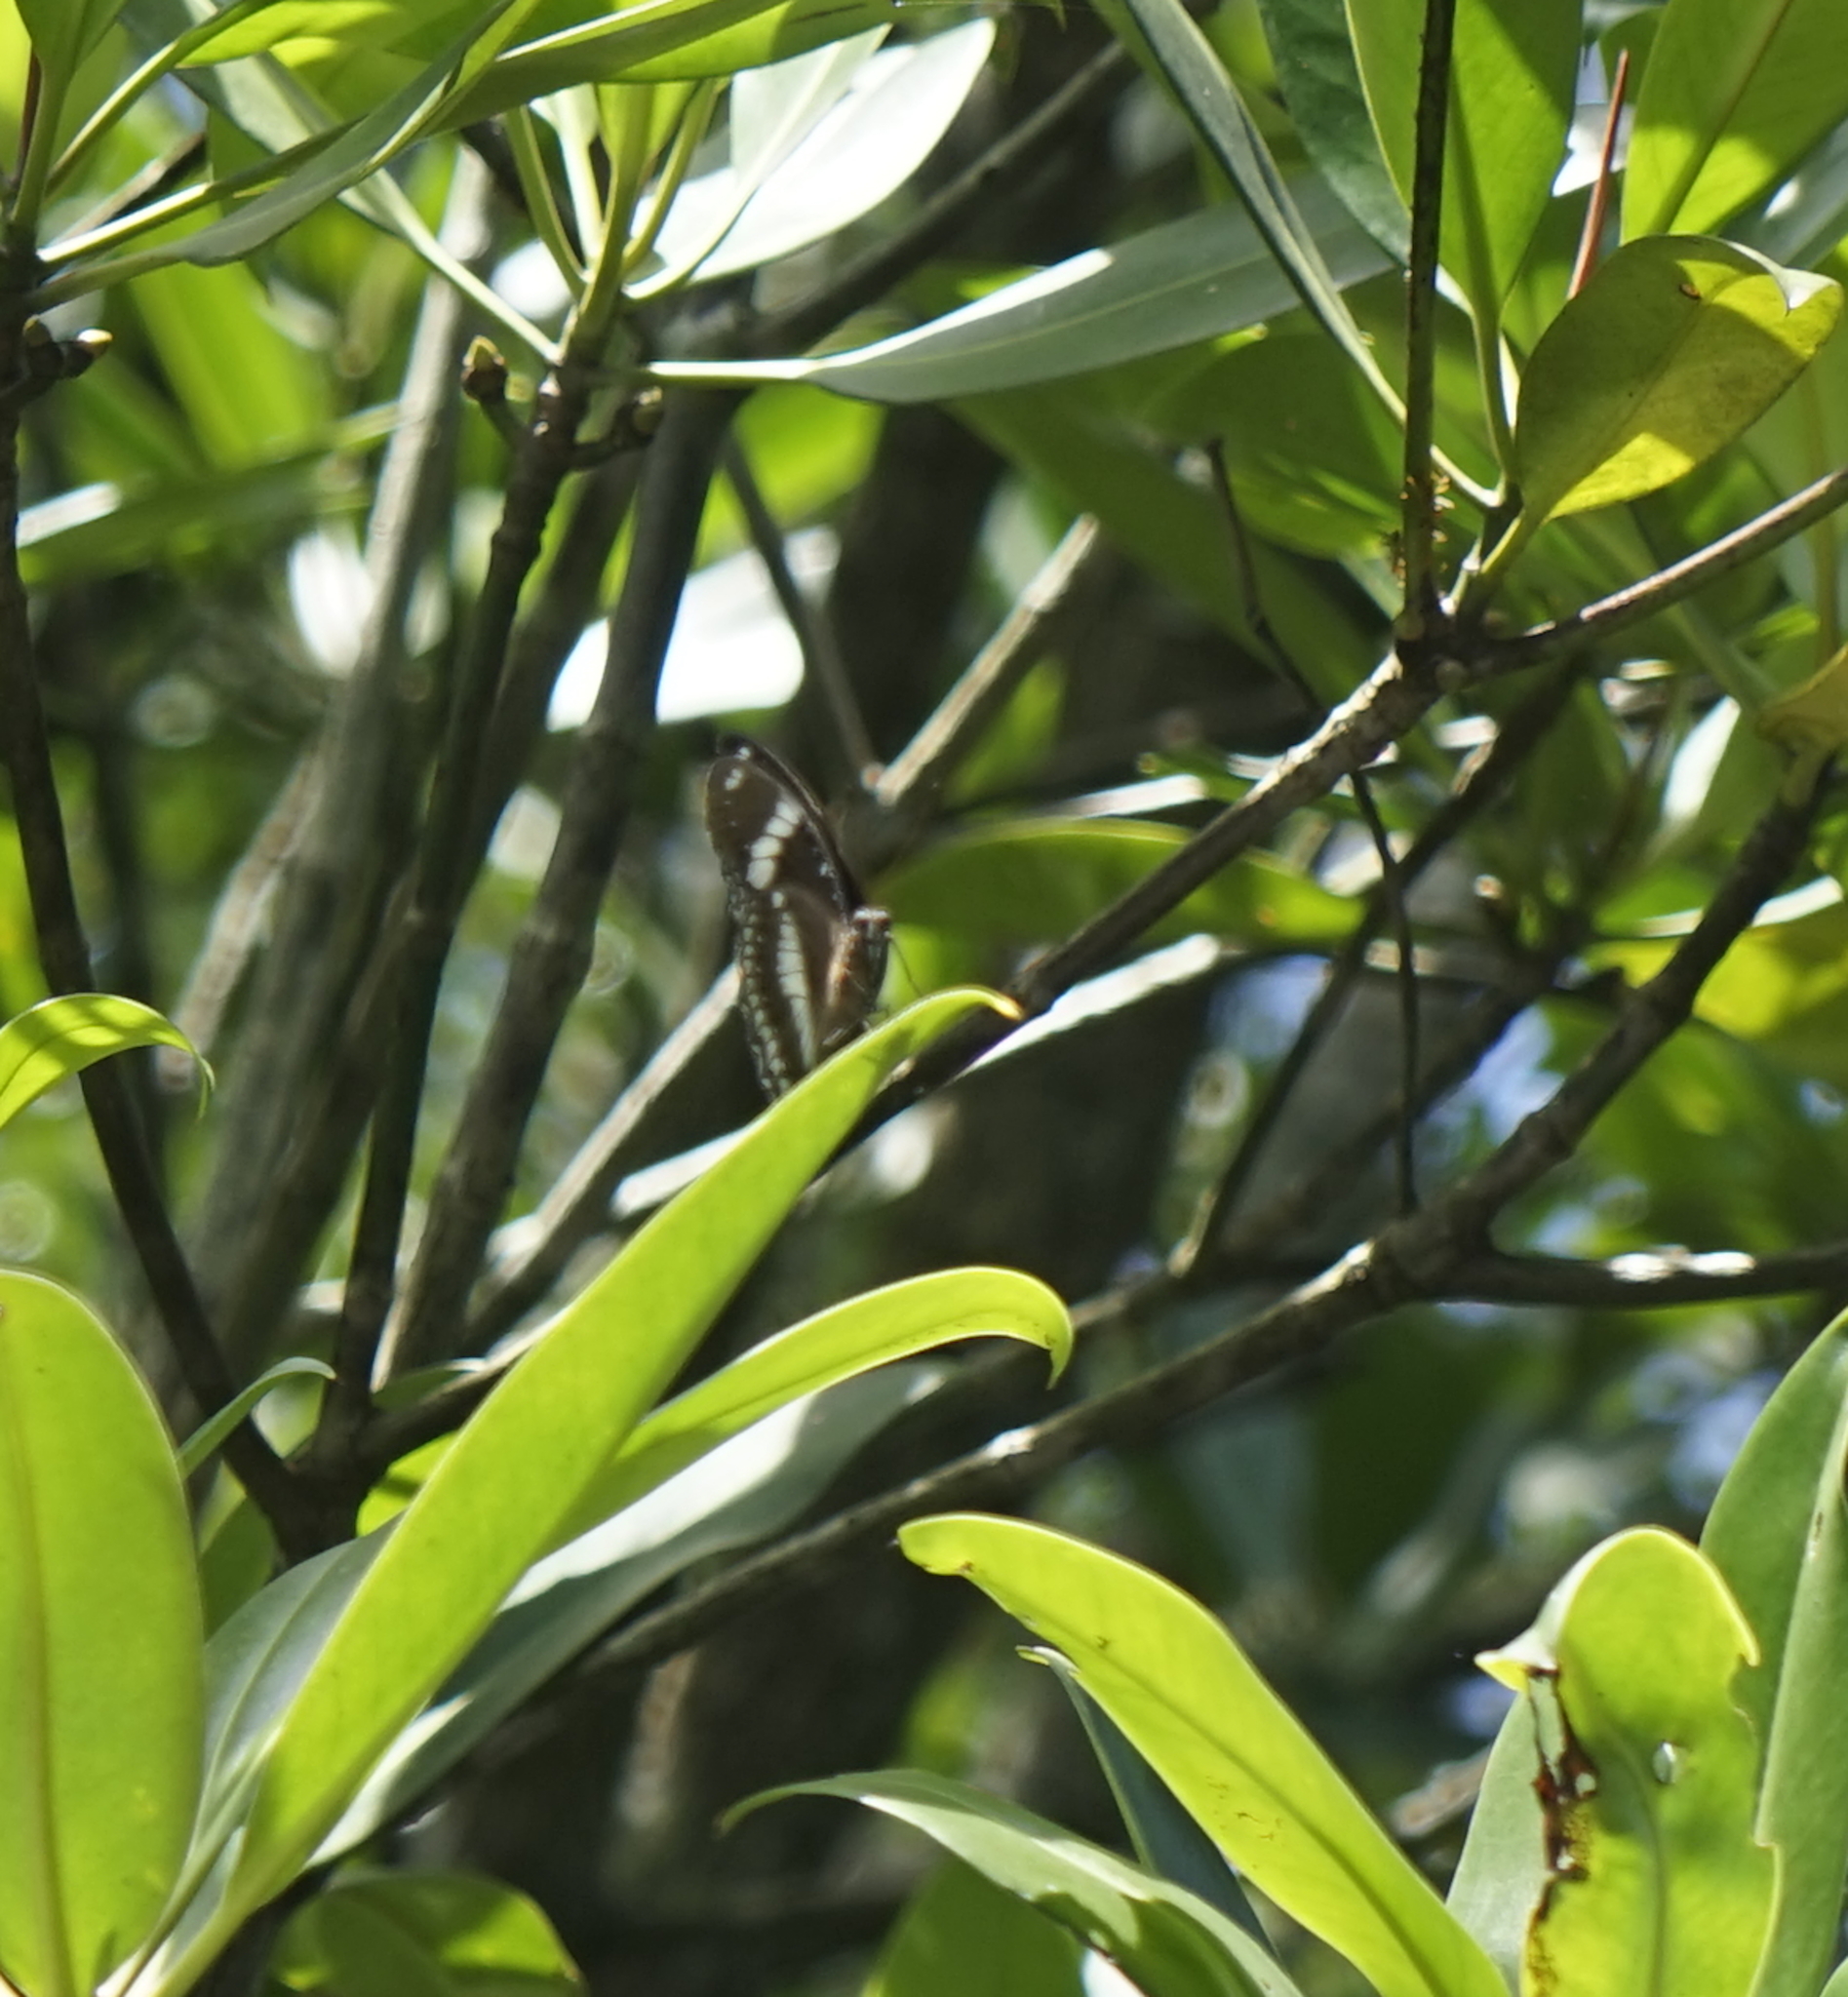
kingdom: Animalia
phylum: Arthropoda
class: Insecta
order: Lepidoptera
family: Nymphalidae
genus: Hypolimnas
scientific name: Hypolimnas bolina
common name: Great eggfly
